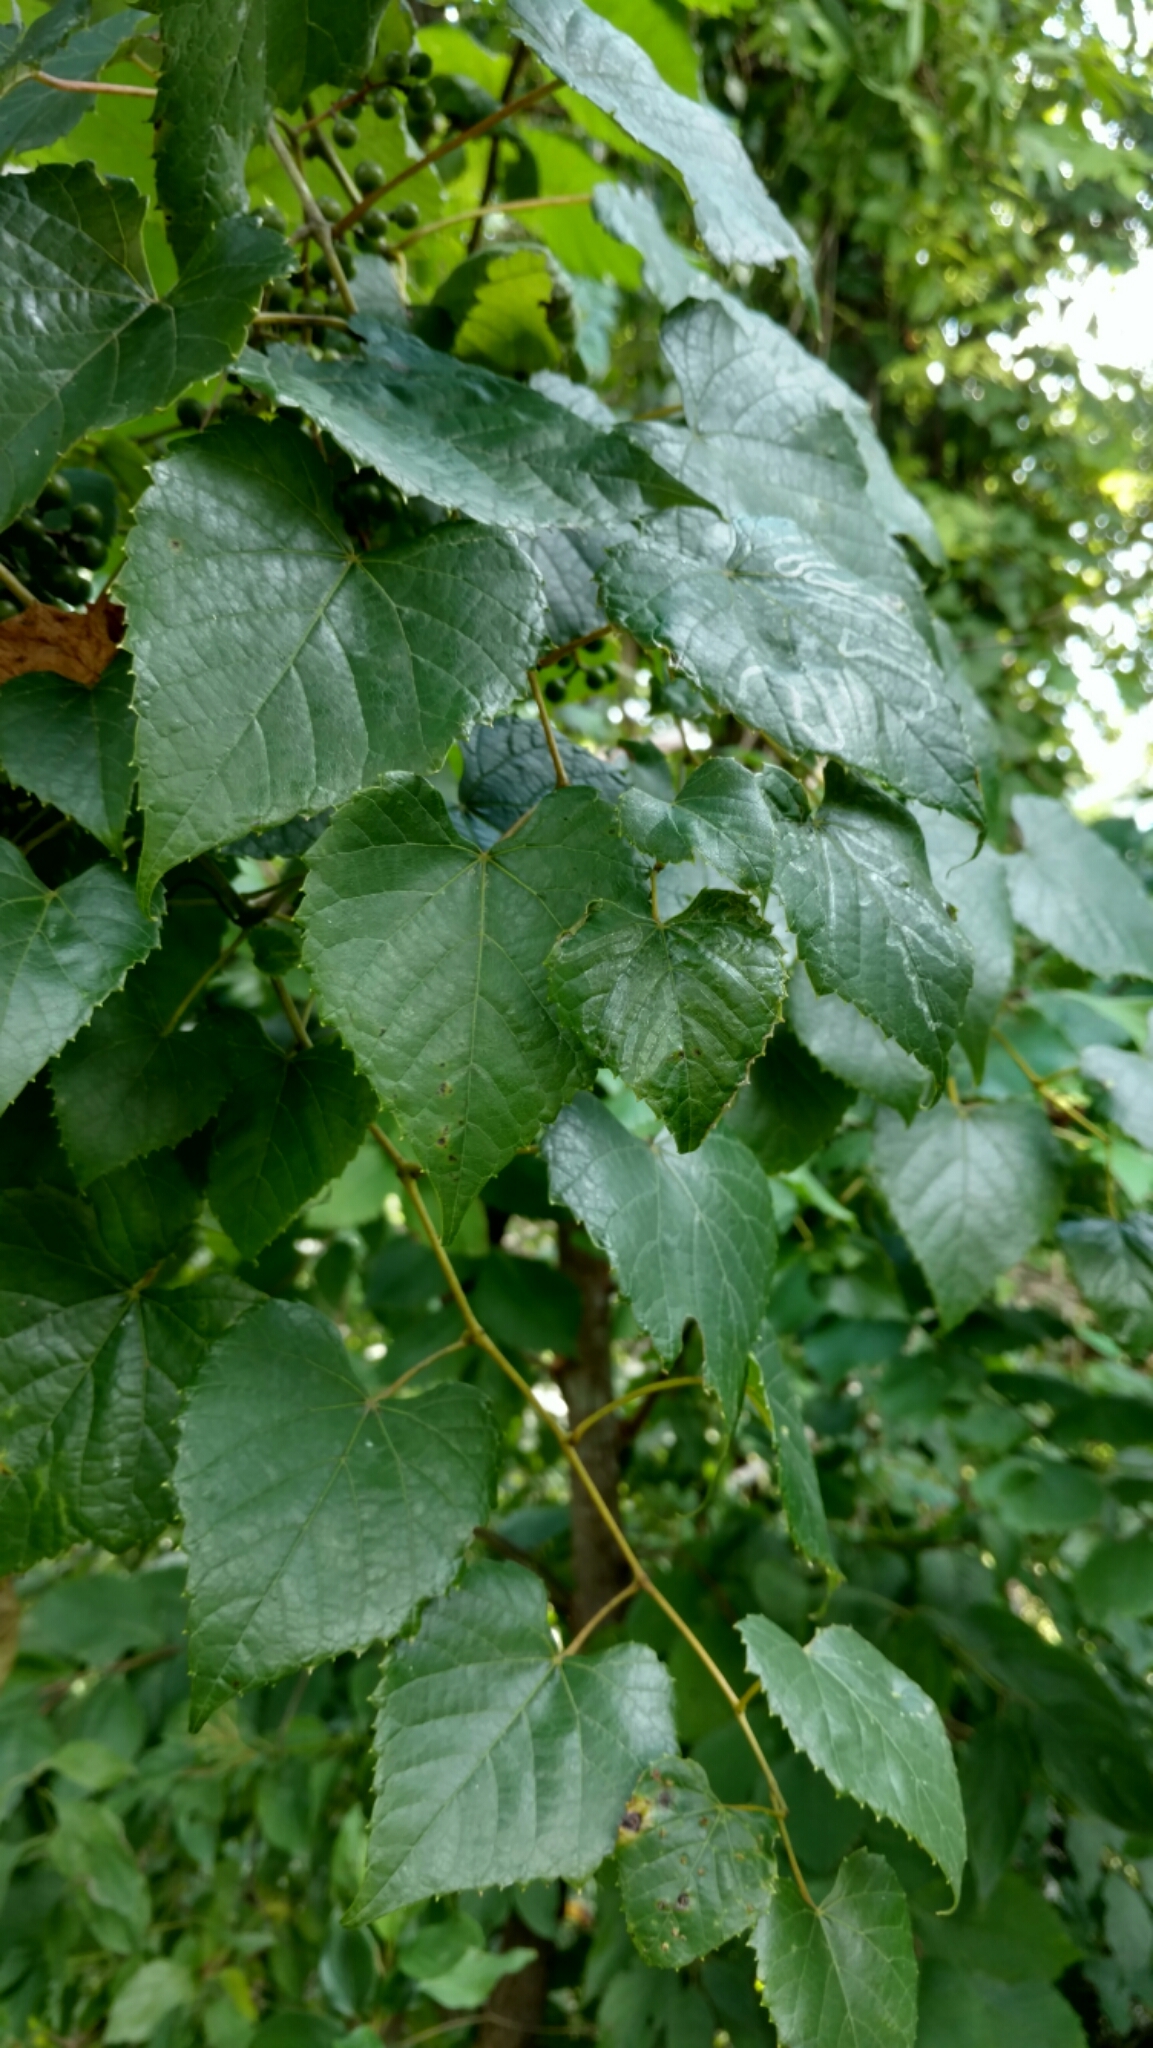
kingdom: Plantae
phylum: Tracheophyta
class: Magnoliopsida
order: Vitales
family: Vitaceae
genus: Vitis
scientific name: Vitis vulpina
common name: Frost grape
